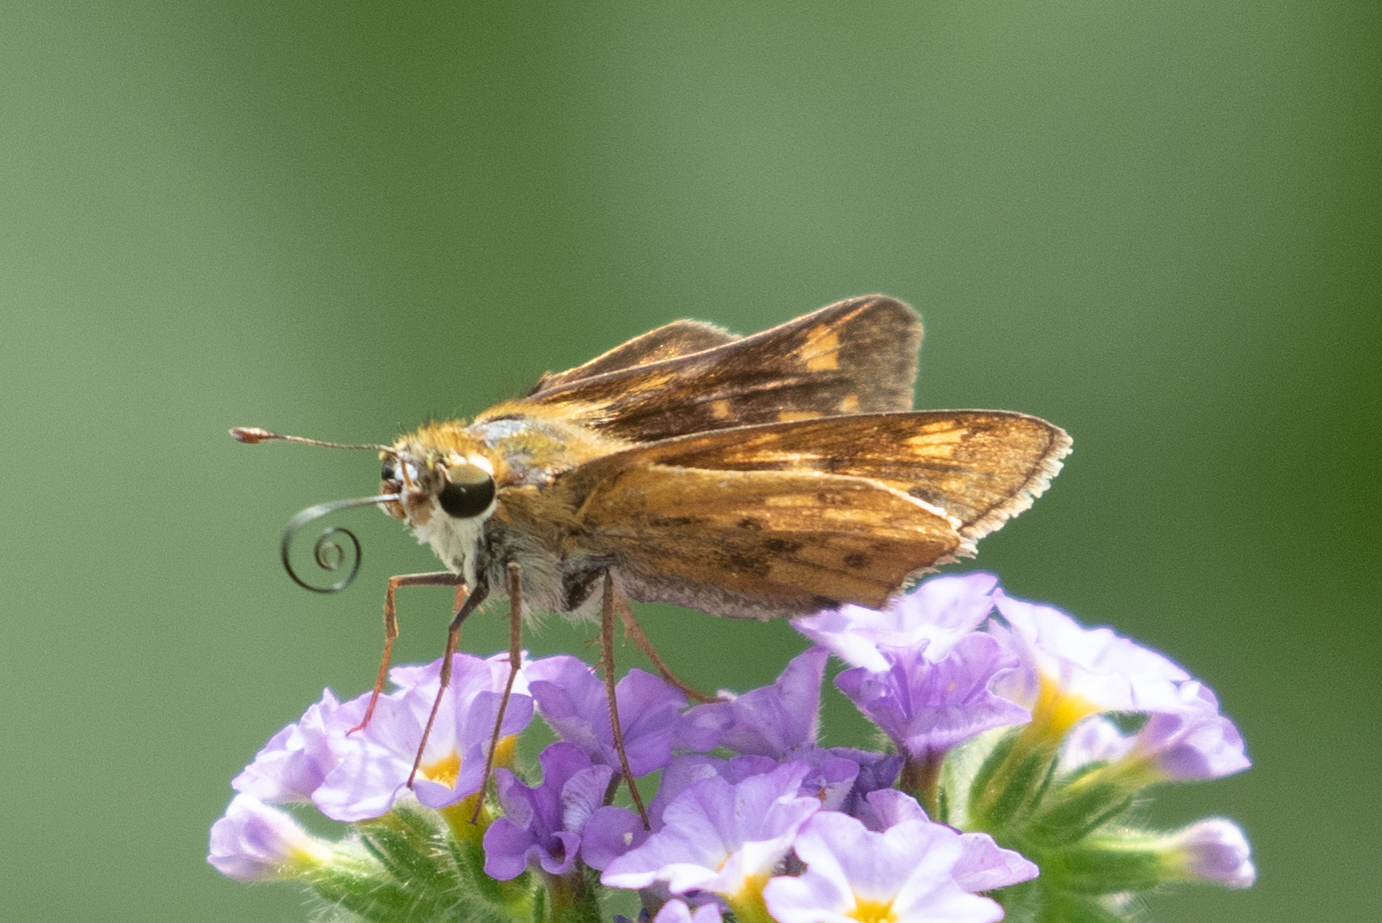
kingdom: Animalia
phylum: Arthropoda
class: Insecta
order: Lepidoptera
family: Hesperiidae
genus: Hylephila
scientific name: Hylephila phyleus
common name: Fiery skipper
